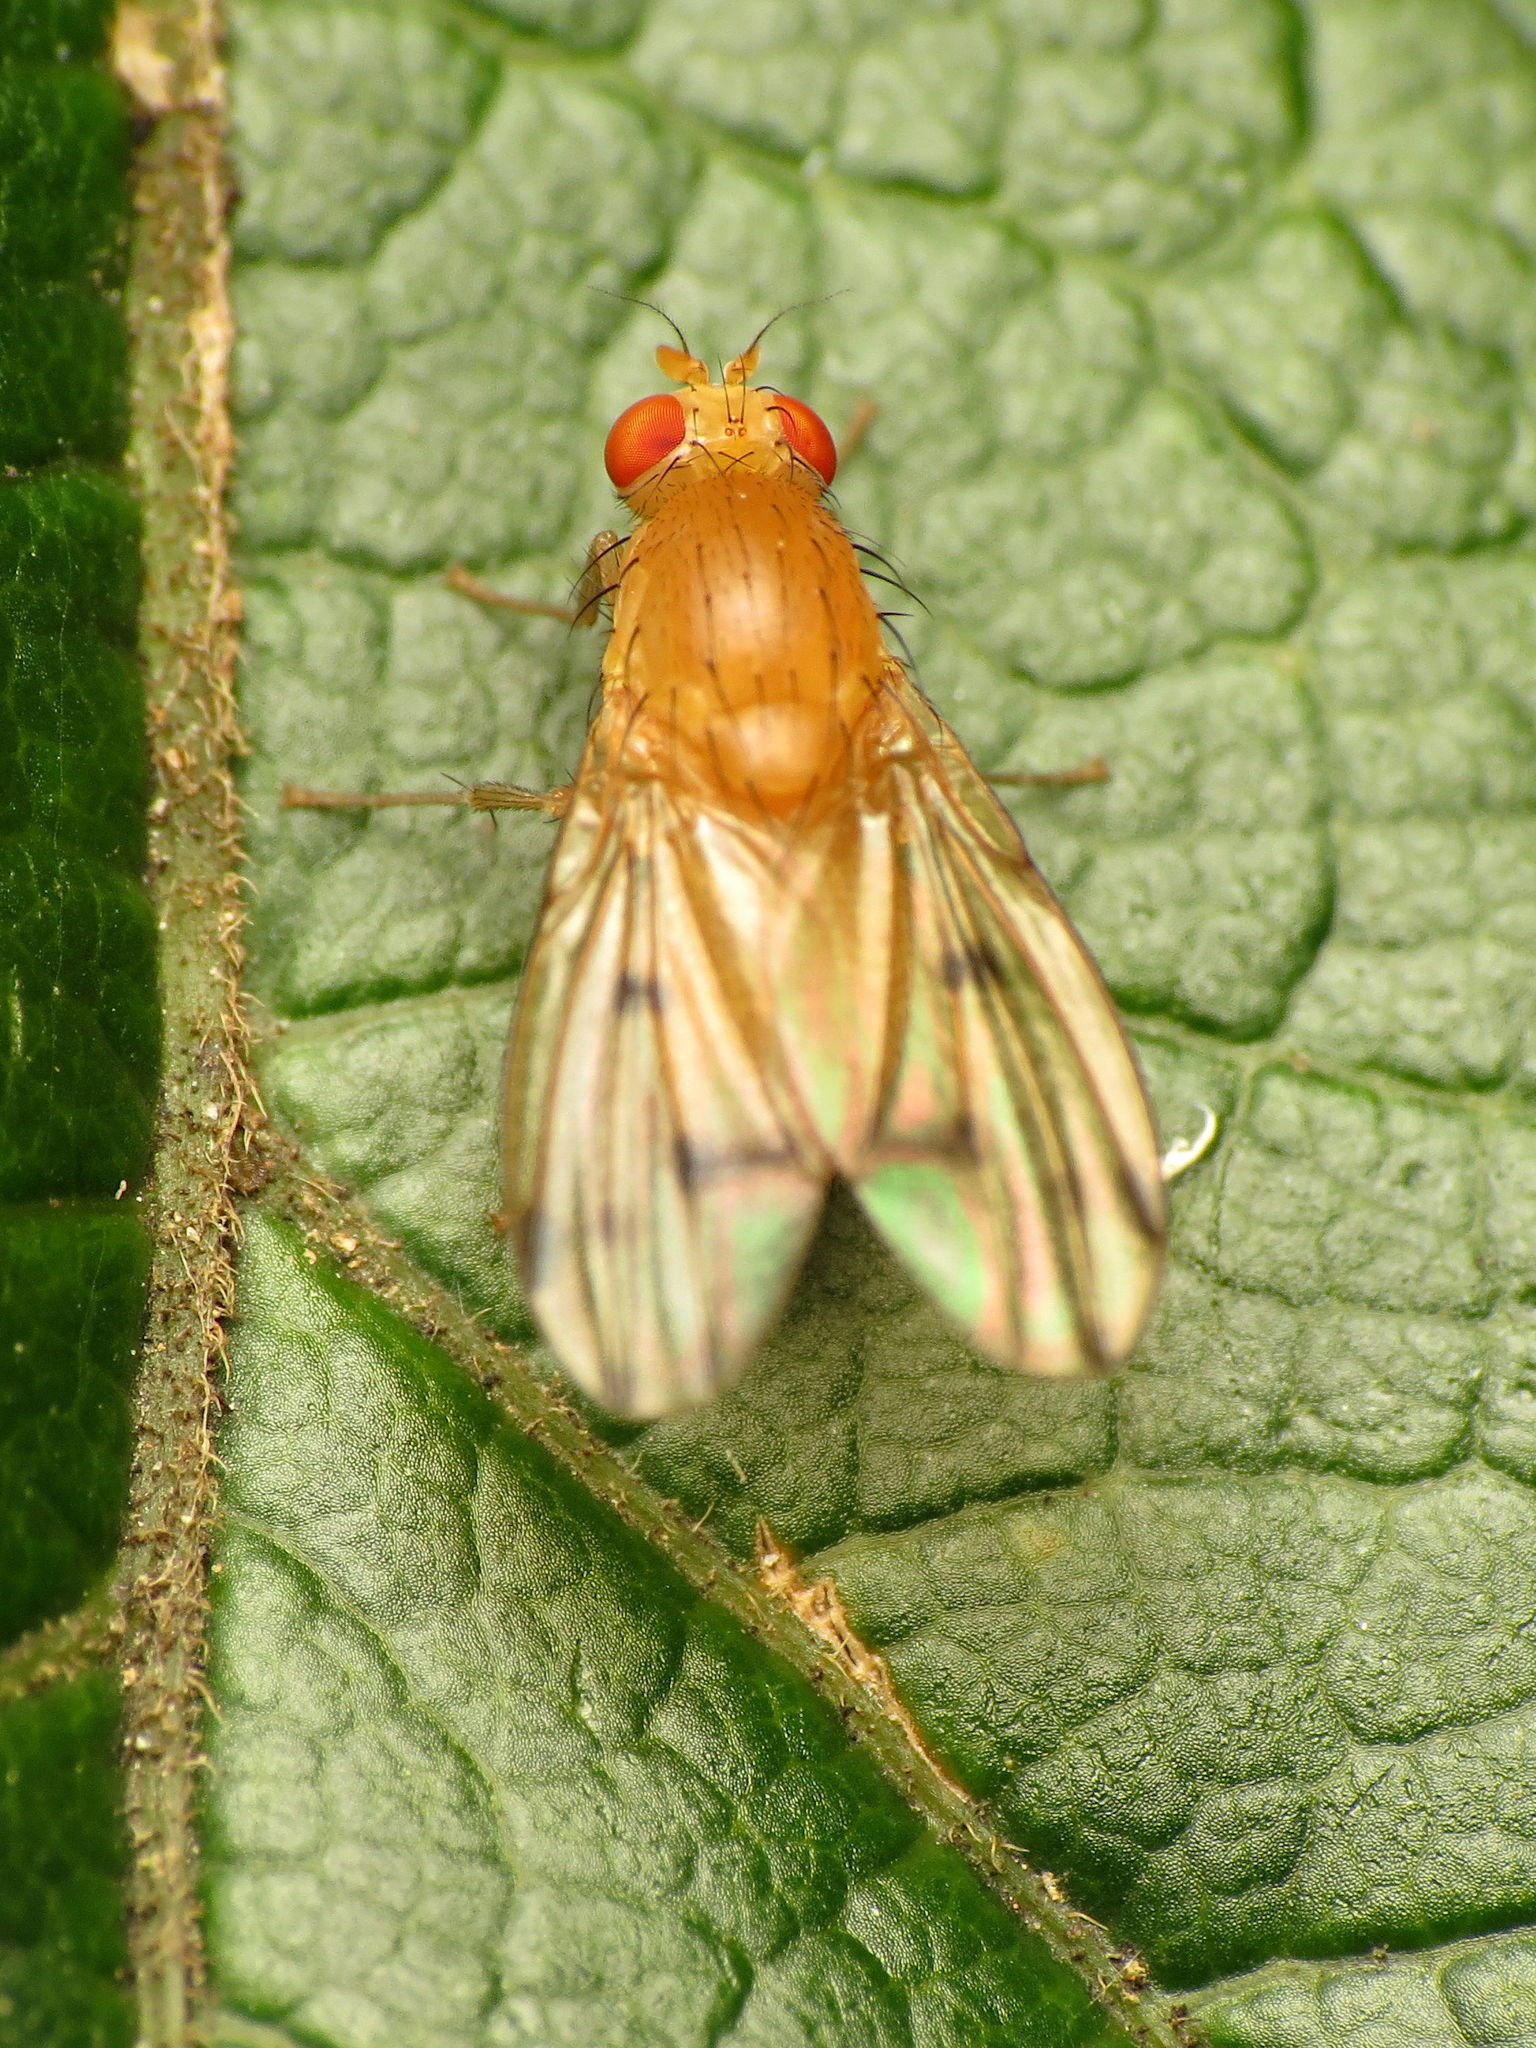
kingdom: Animalia
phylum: Arthropoda
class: Insecta
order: Diptera
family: Lauxaniidae
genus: Homoneura
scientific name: Homoneura fuscibasis
